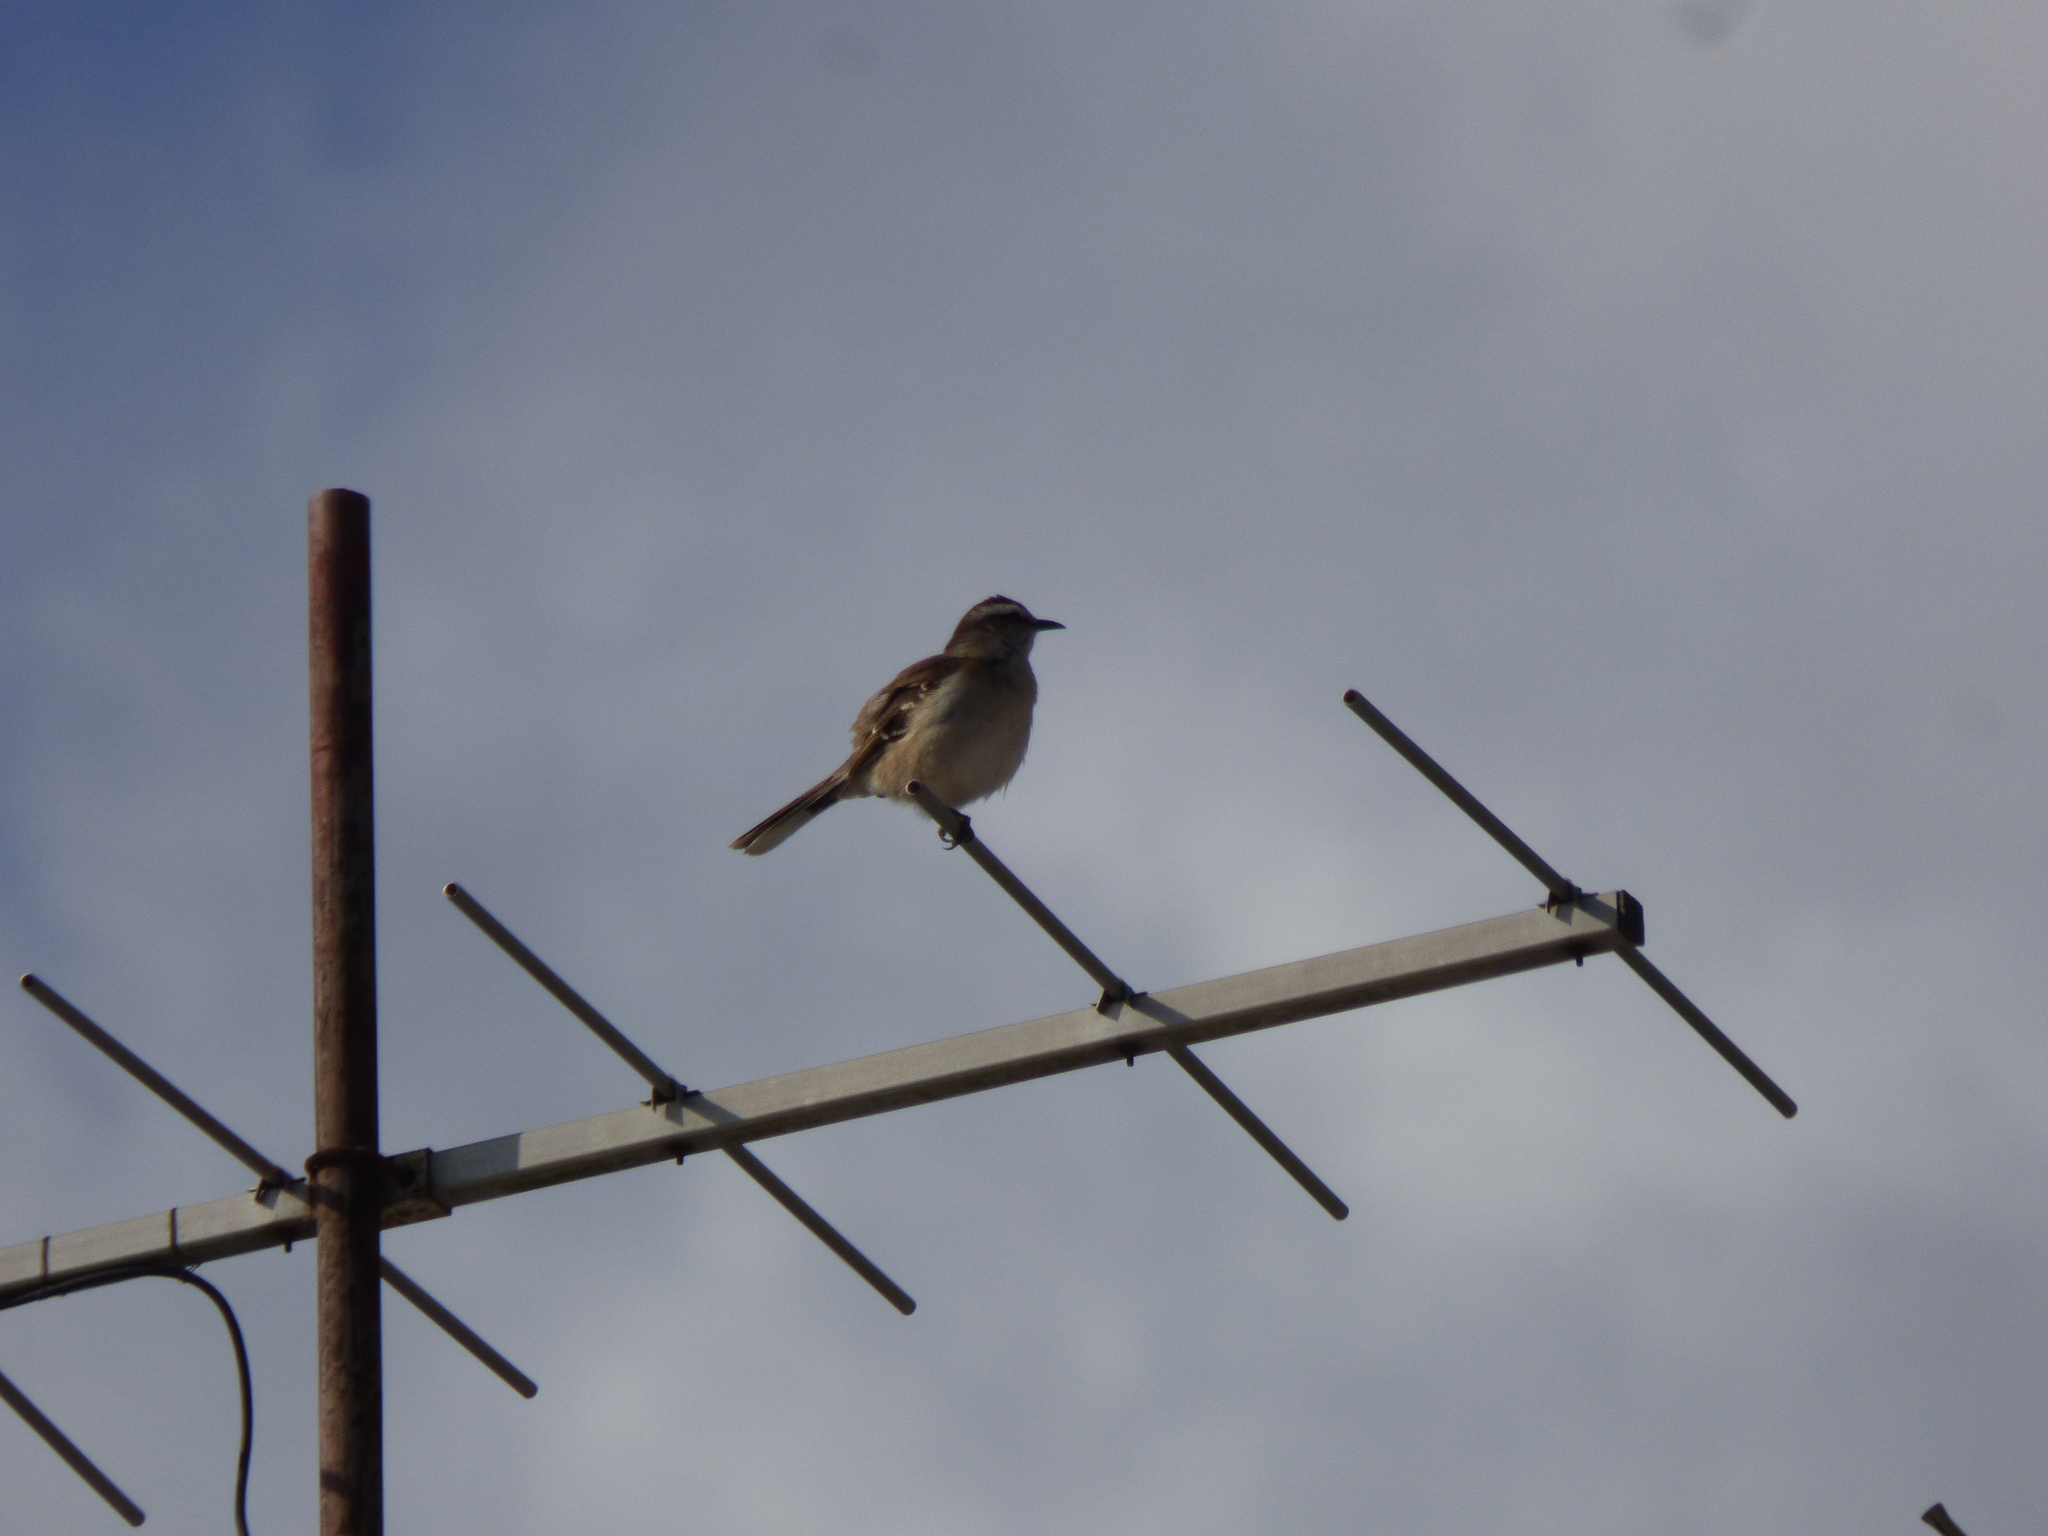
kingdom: Animalia
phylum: Chordata
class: Aves
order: Passeriformes
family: Mimidae
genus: Mimus
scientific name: Mimus saturninus
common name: Chalk-browed mockingbird
